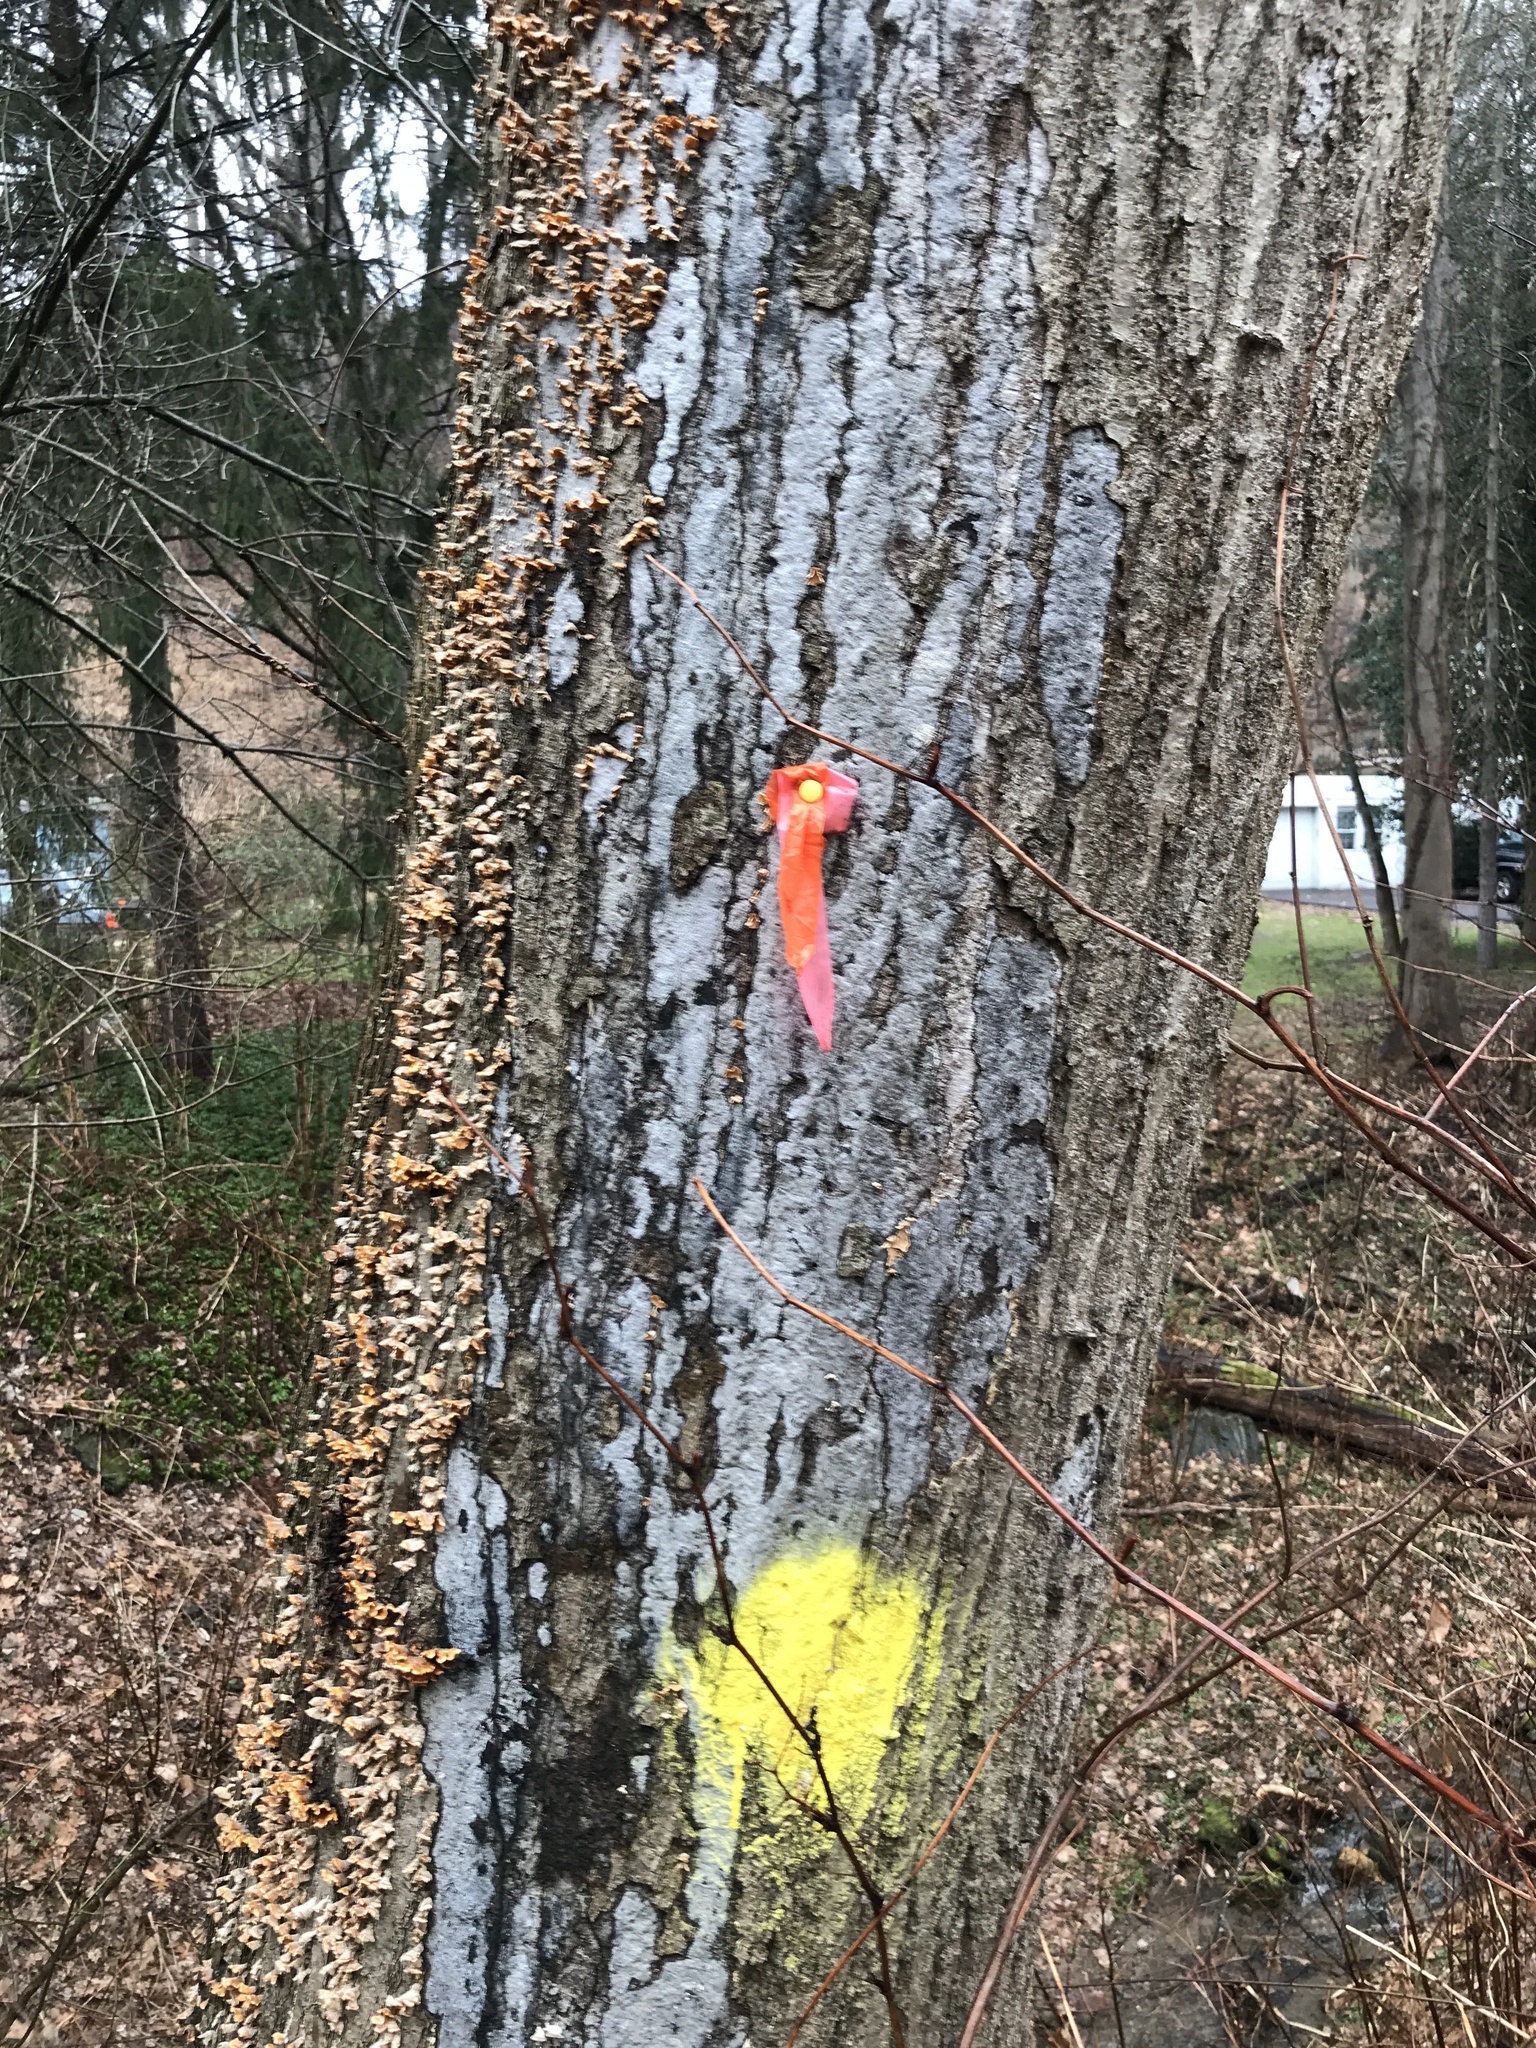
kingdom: Fungi
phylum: Ascomycota
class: Sordariomycetes
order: Xylariales
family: Graphostromataceae
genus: Biscogniauxia
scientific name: Biscogniauxia atropunctata
